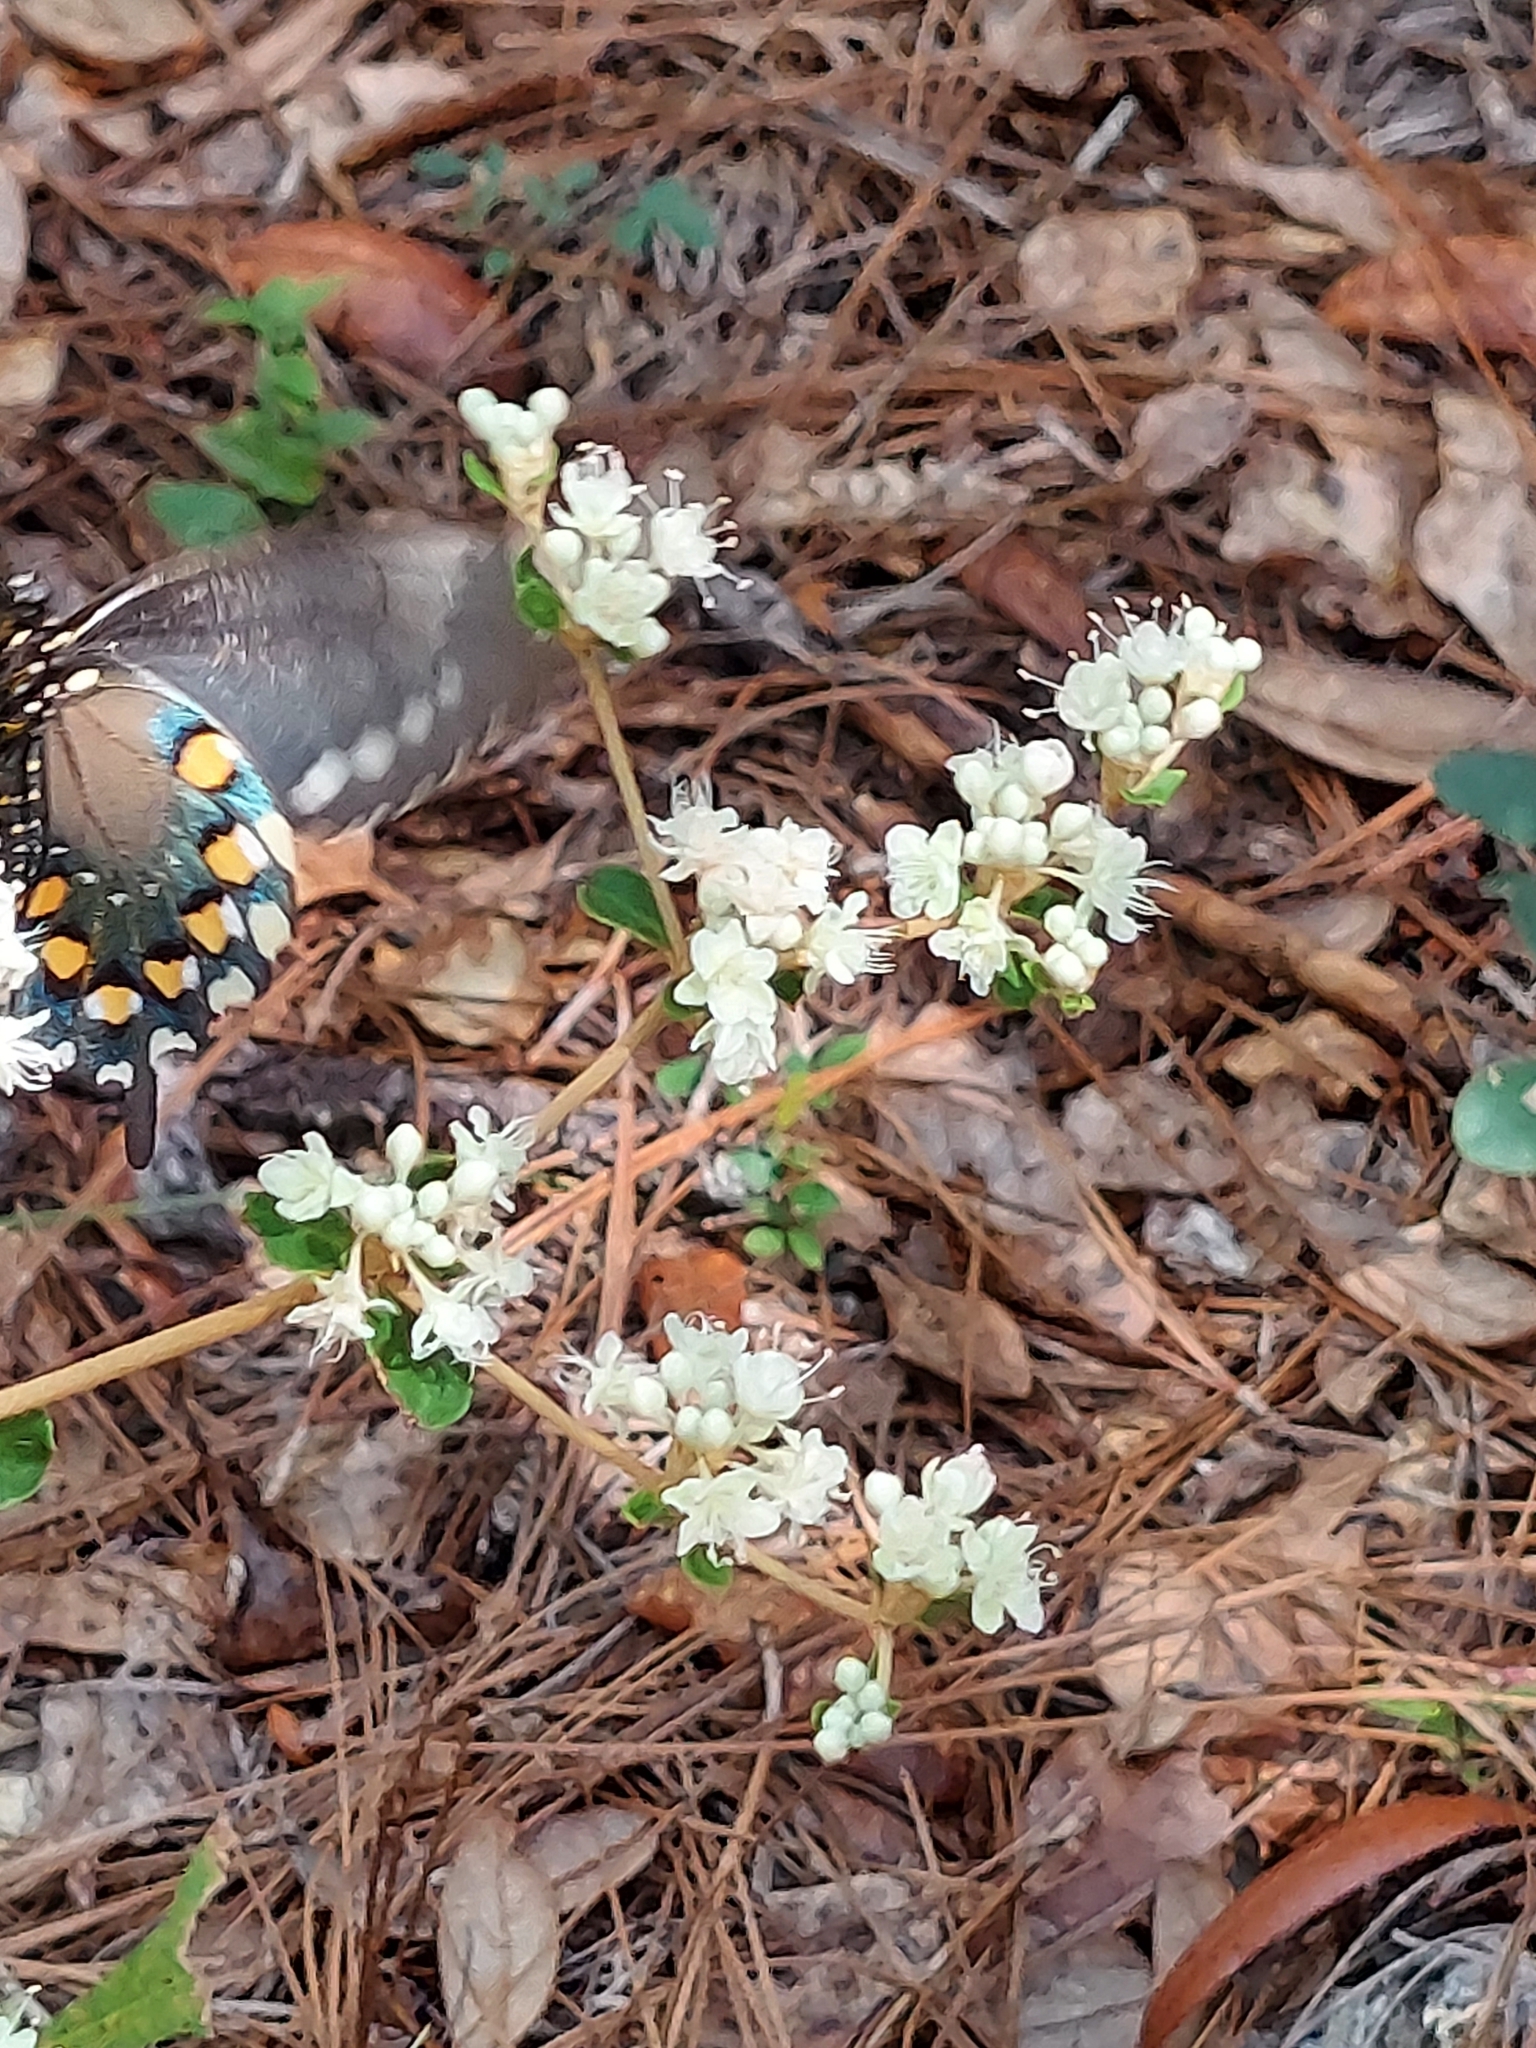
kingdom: Animalia
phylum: Arthropoda
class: Insecta
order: Lepidoptera
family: Papilionidae
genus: Battus
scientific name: Battus philenor
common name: Pipevine swallowtail
